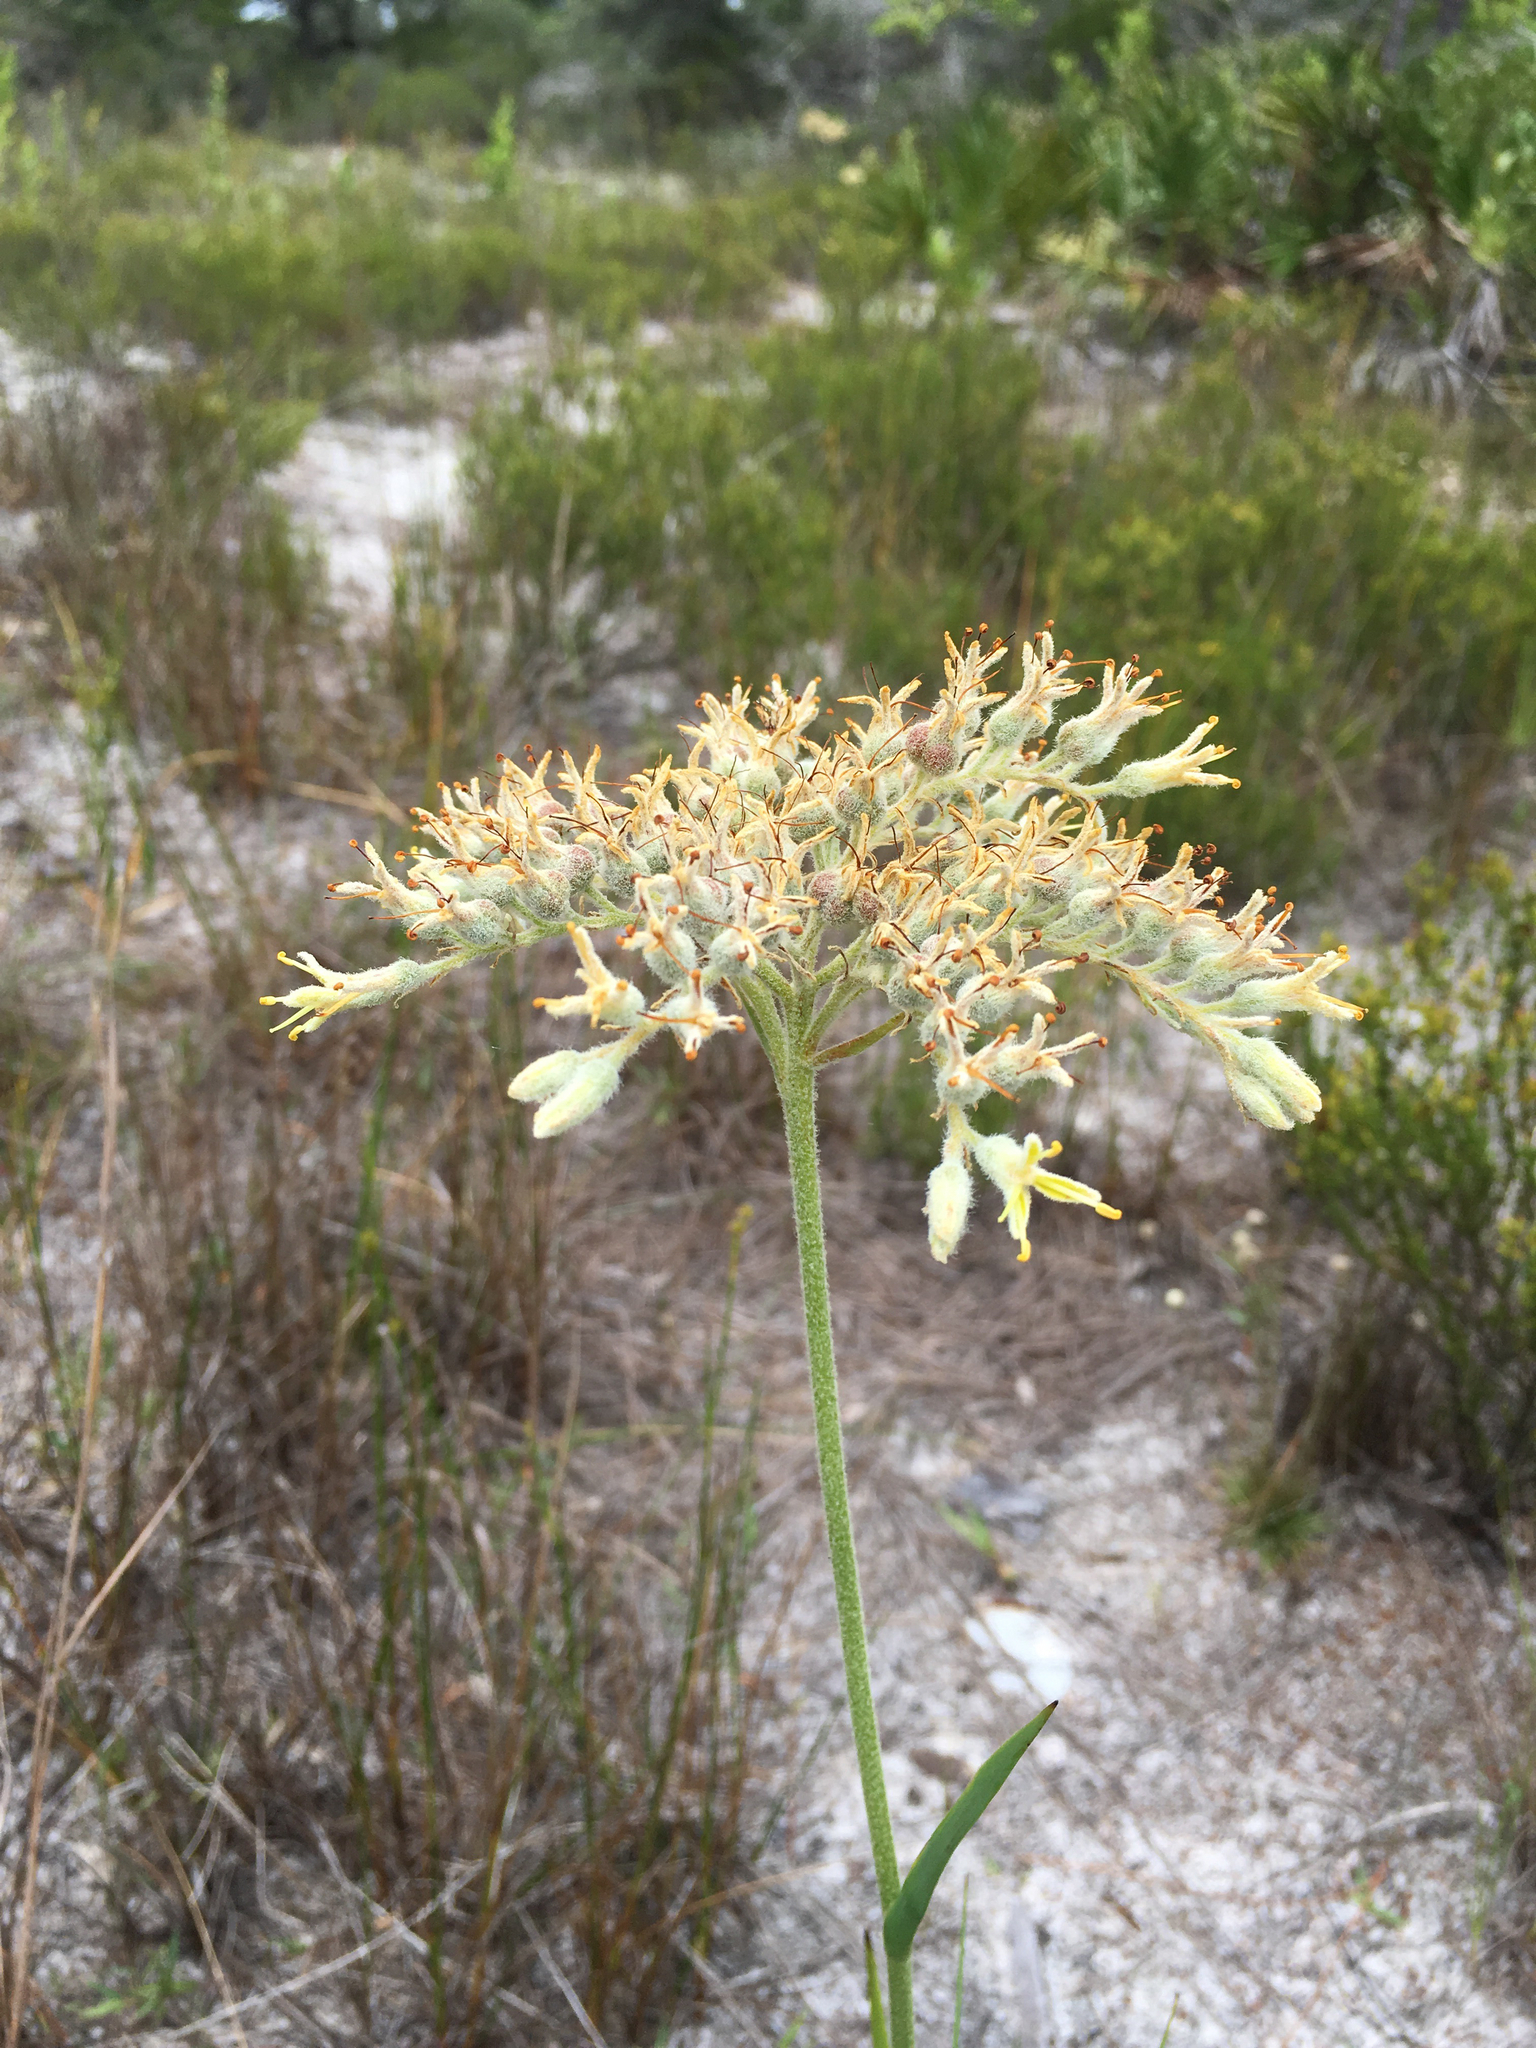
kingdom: Plantae
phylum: Tracheophyta
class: Liliopsida
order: Commelinales
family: Haemodoraceae
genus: Lachnanthes
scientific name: Lachnanthes caroliana
